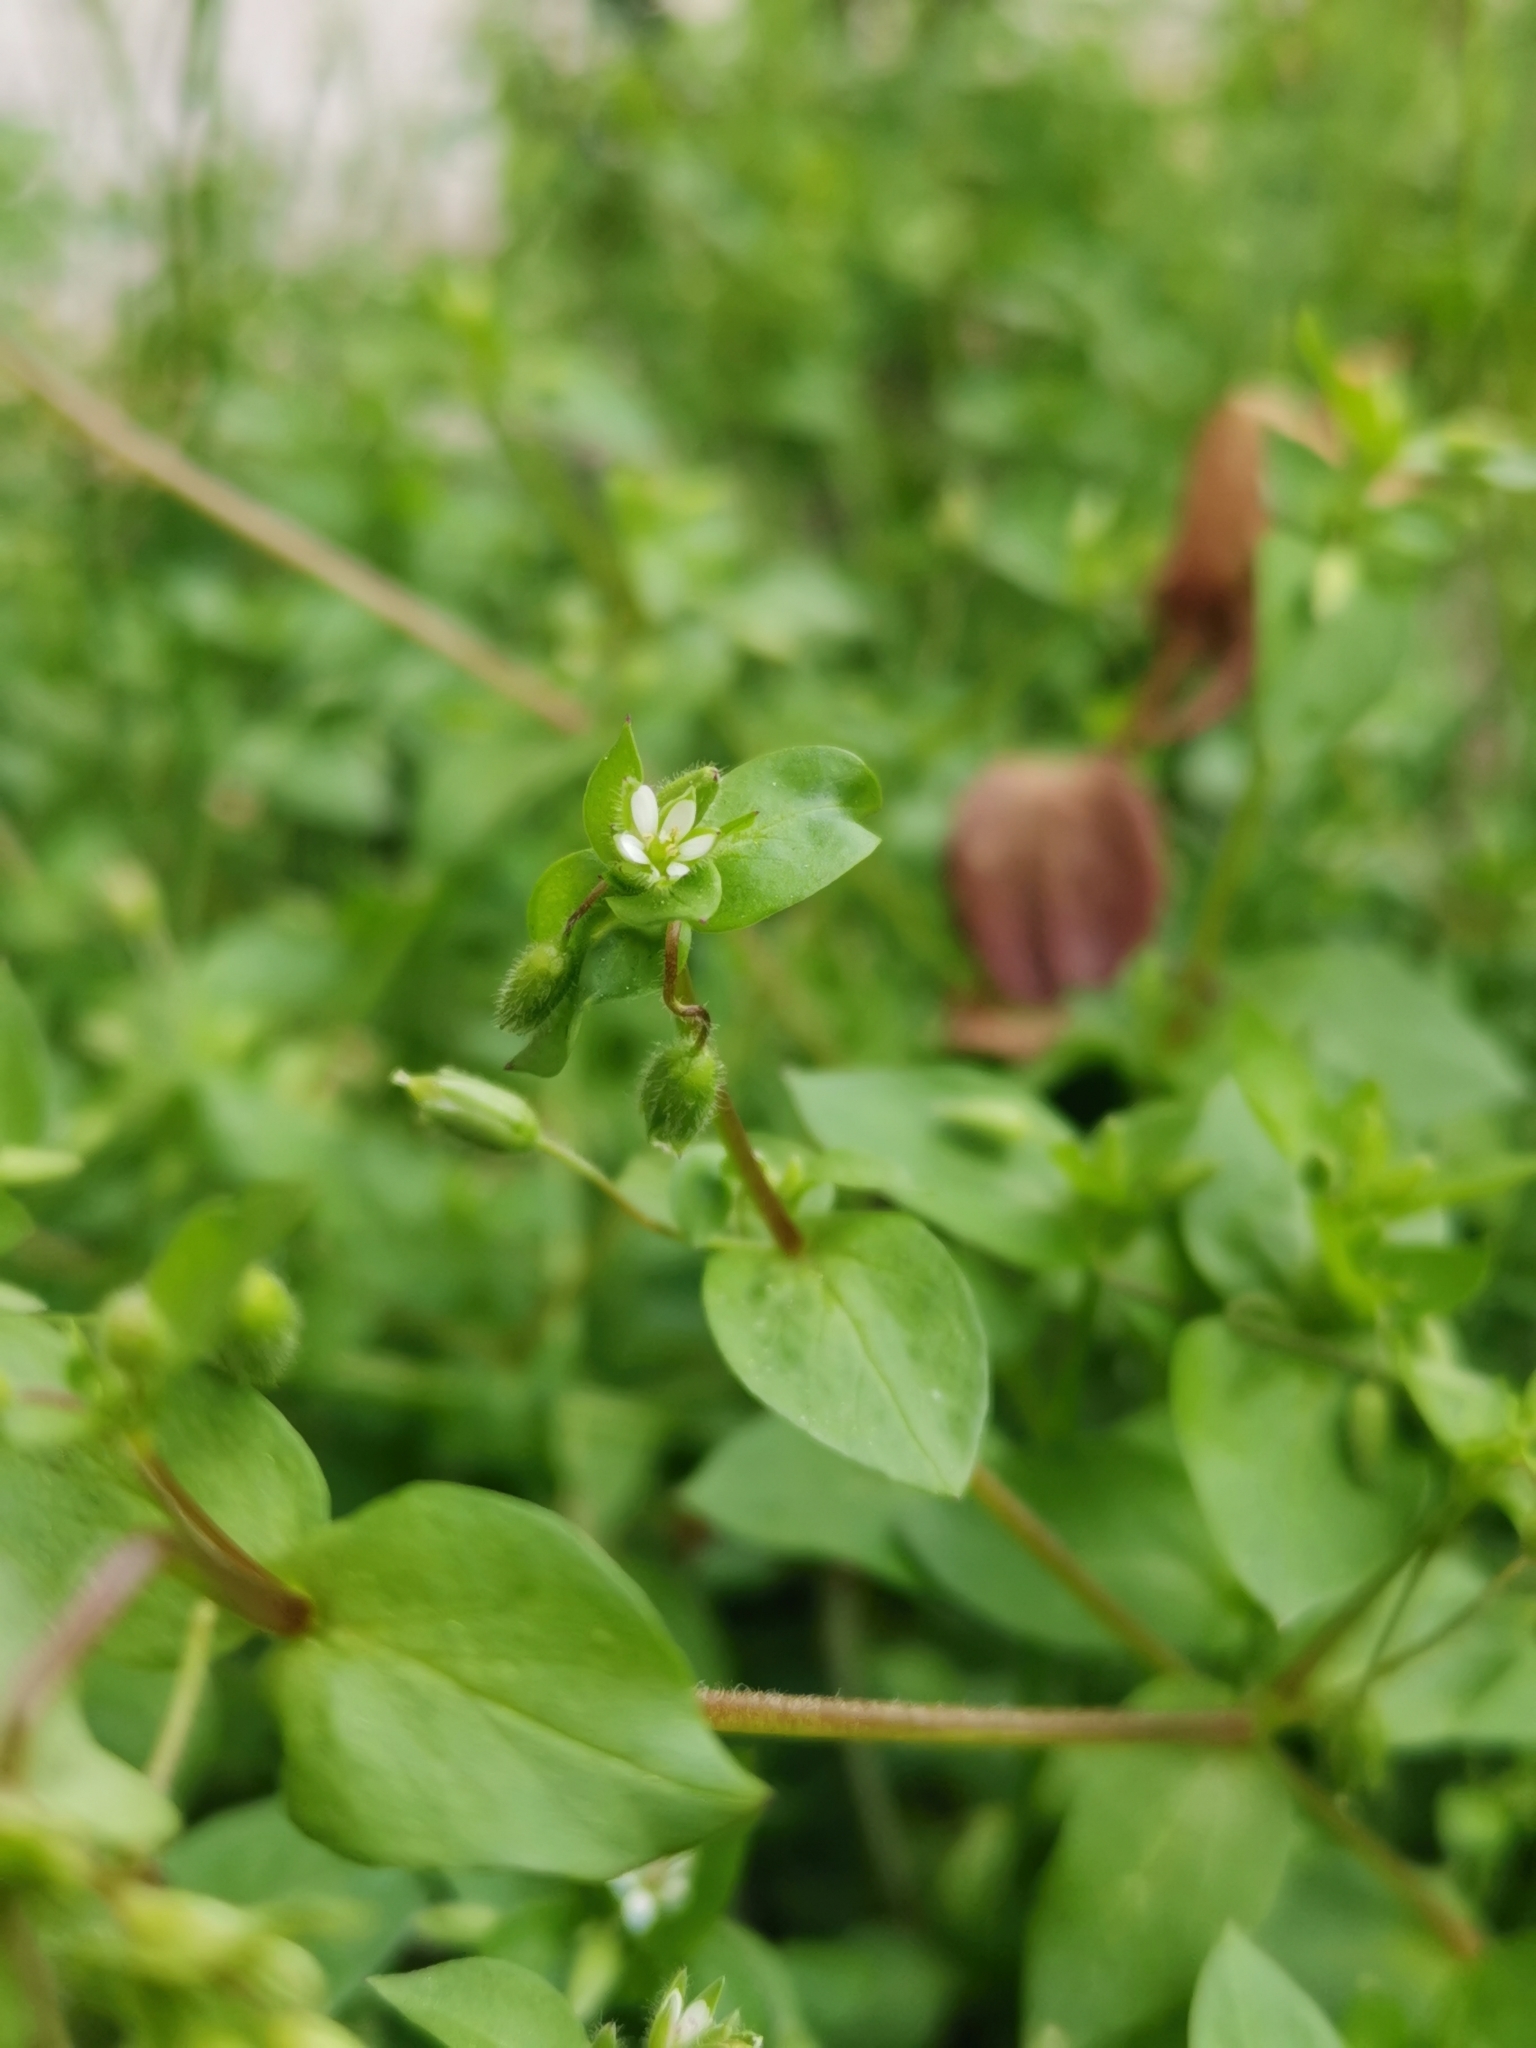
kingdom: Plantae
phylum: Tracheophyta
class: Magnoliopsida
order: Caryophyllales
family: Caryophyllaceae
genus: Stellaria
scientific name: Stellaria media
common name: Common chickweed
